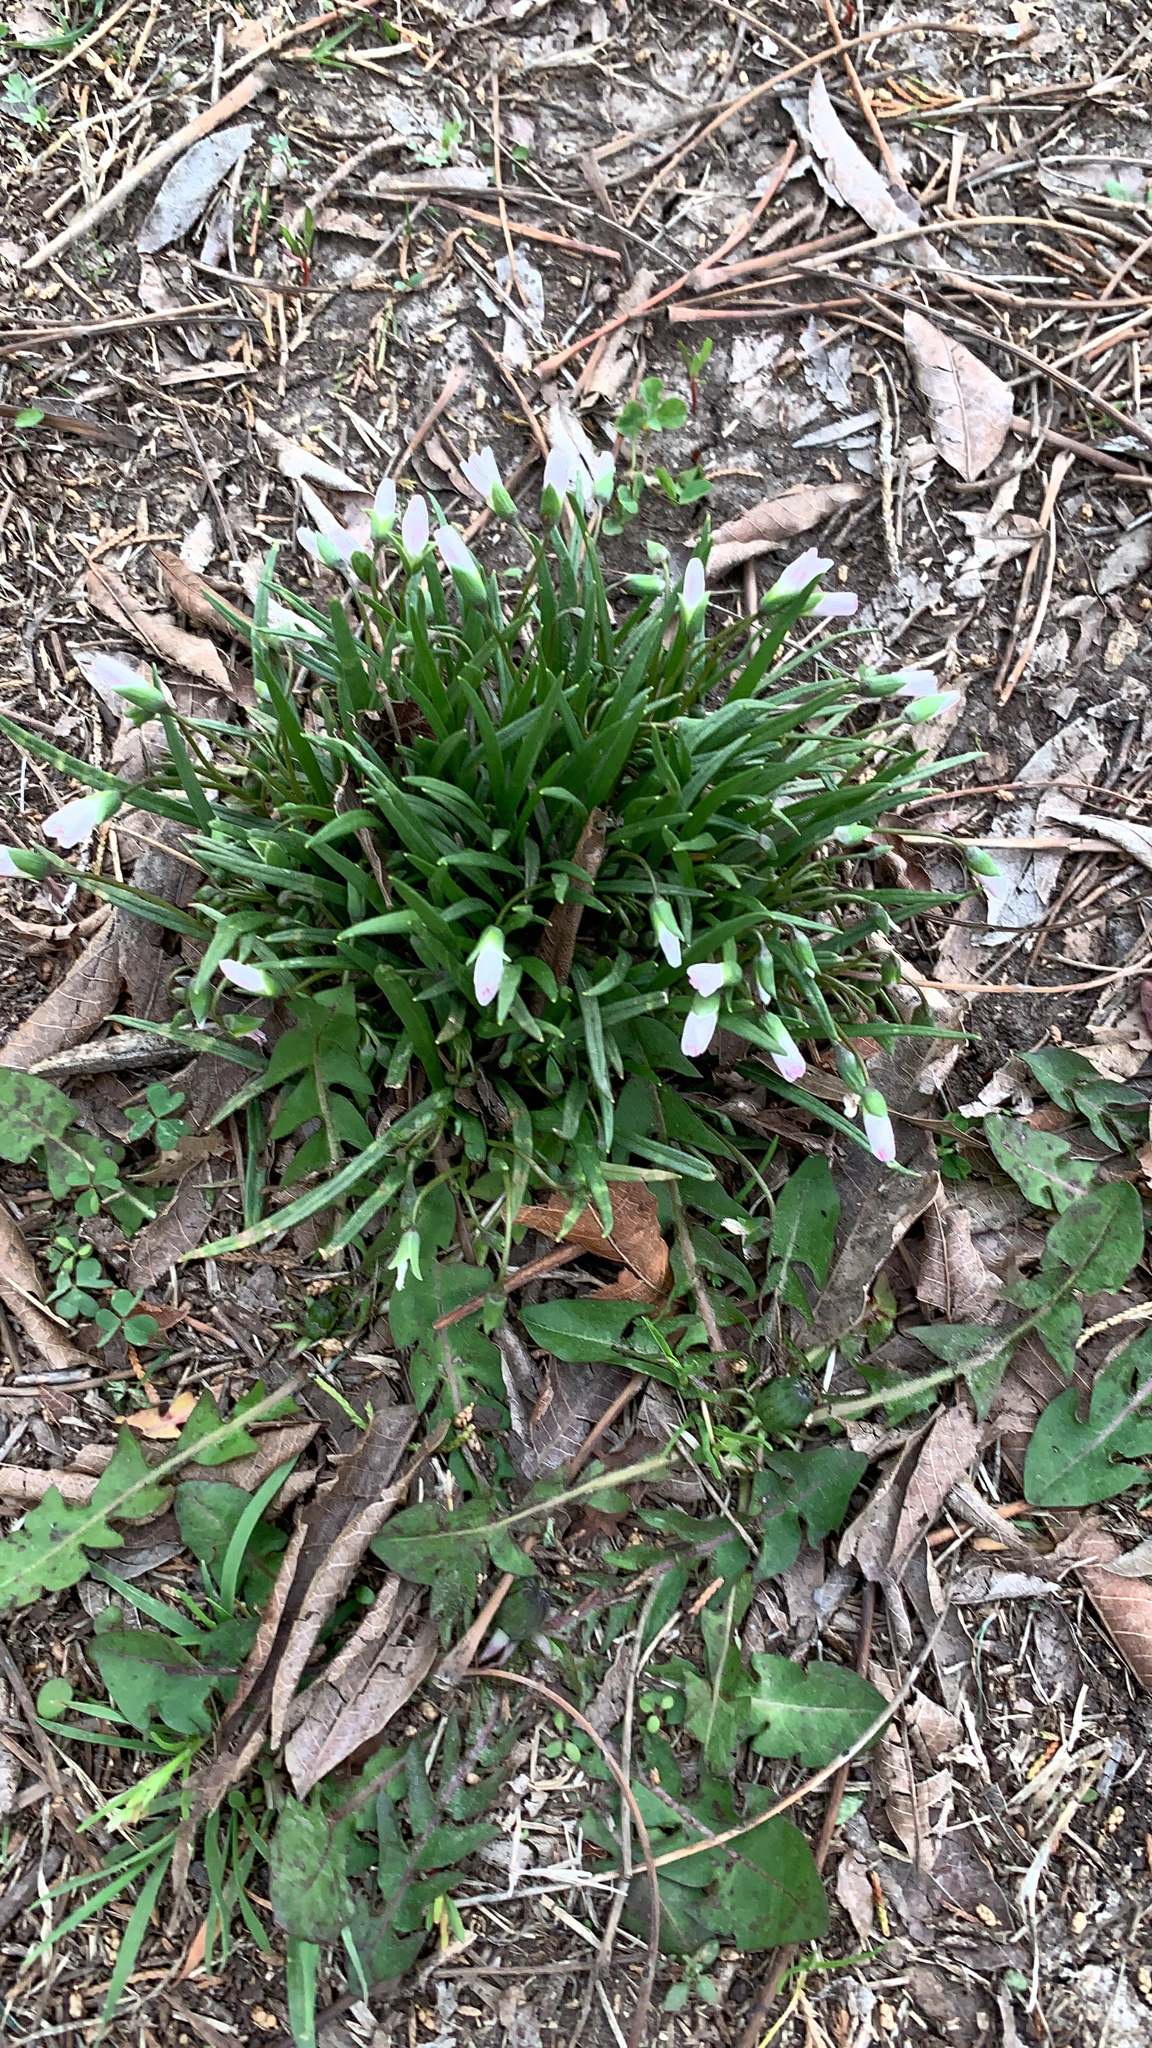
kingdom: Plantae
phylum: Tracheophyta
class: Magnoliopsida
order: Caryophyllales
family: Montiaceae
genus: Claytonia
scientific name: Claytonia virginica
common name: Virginia springbeauty
